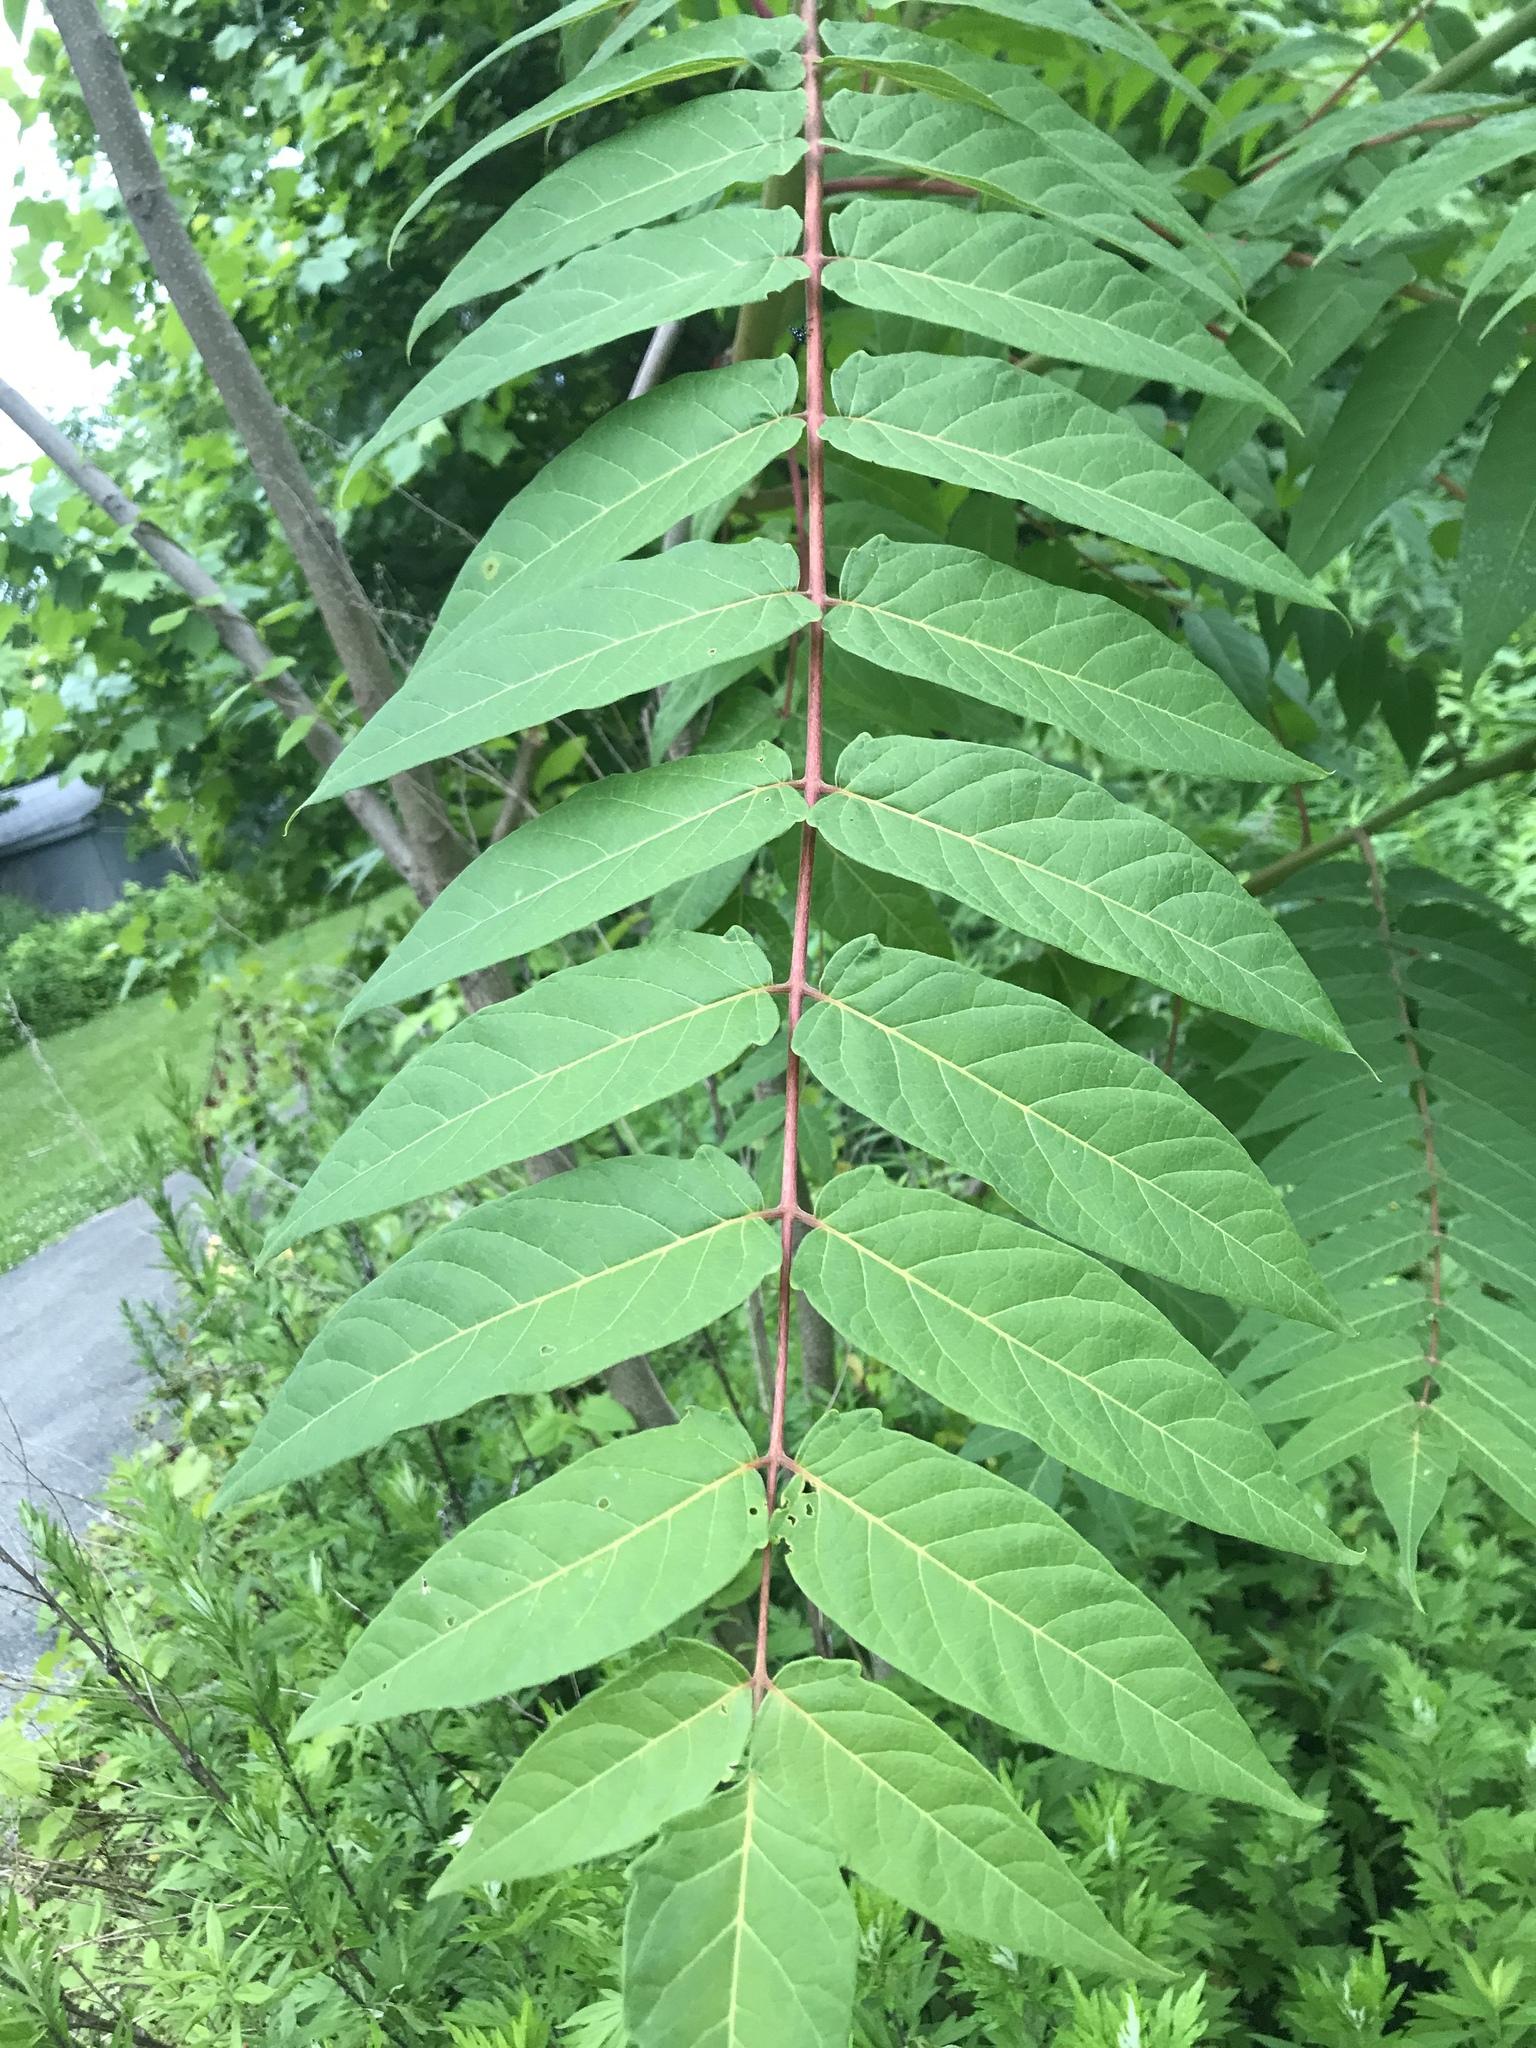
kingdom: Plantae
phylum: Tracheophyta
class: Magnoliopsida
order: Sapindales
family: Simaroubaceae
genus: Ailanthus
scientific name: Ailanthus altissima
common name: Tree-of-heaven
